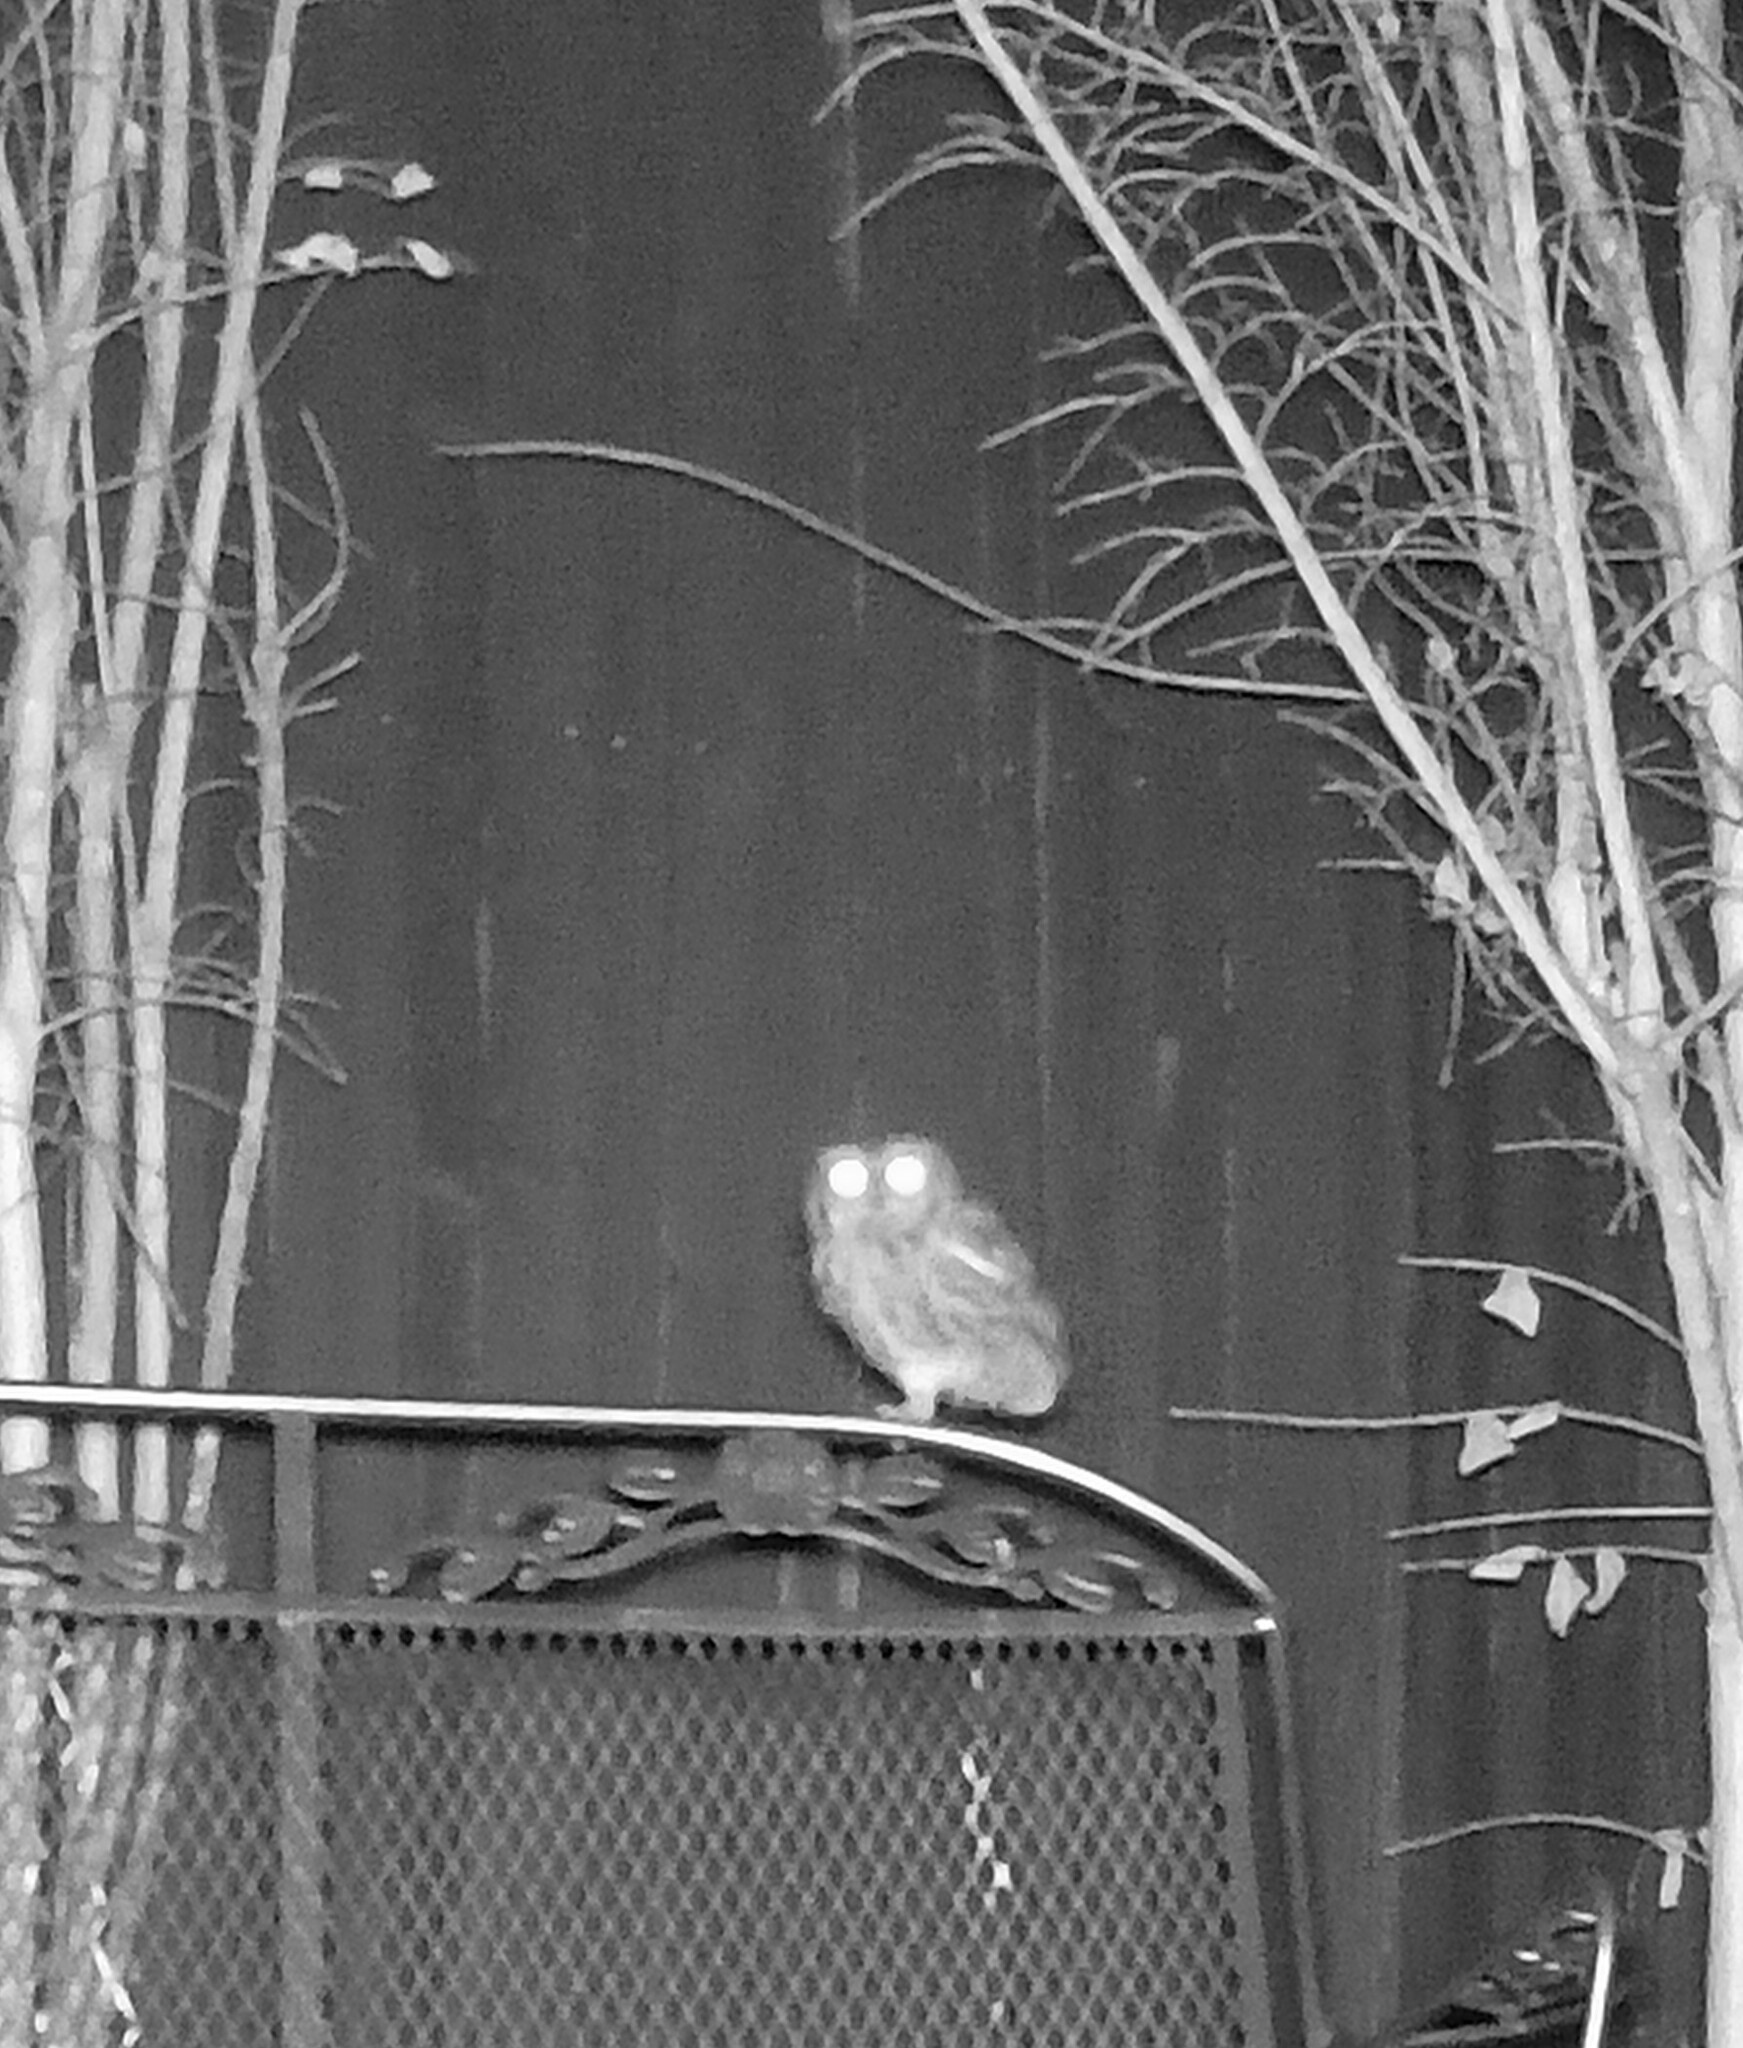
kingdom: Animalia
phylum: Chordata
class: Aves
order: Strigiformes
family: Strigidae
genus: Megascops
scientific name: Megascops asio
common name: Eastern screech-owl
